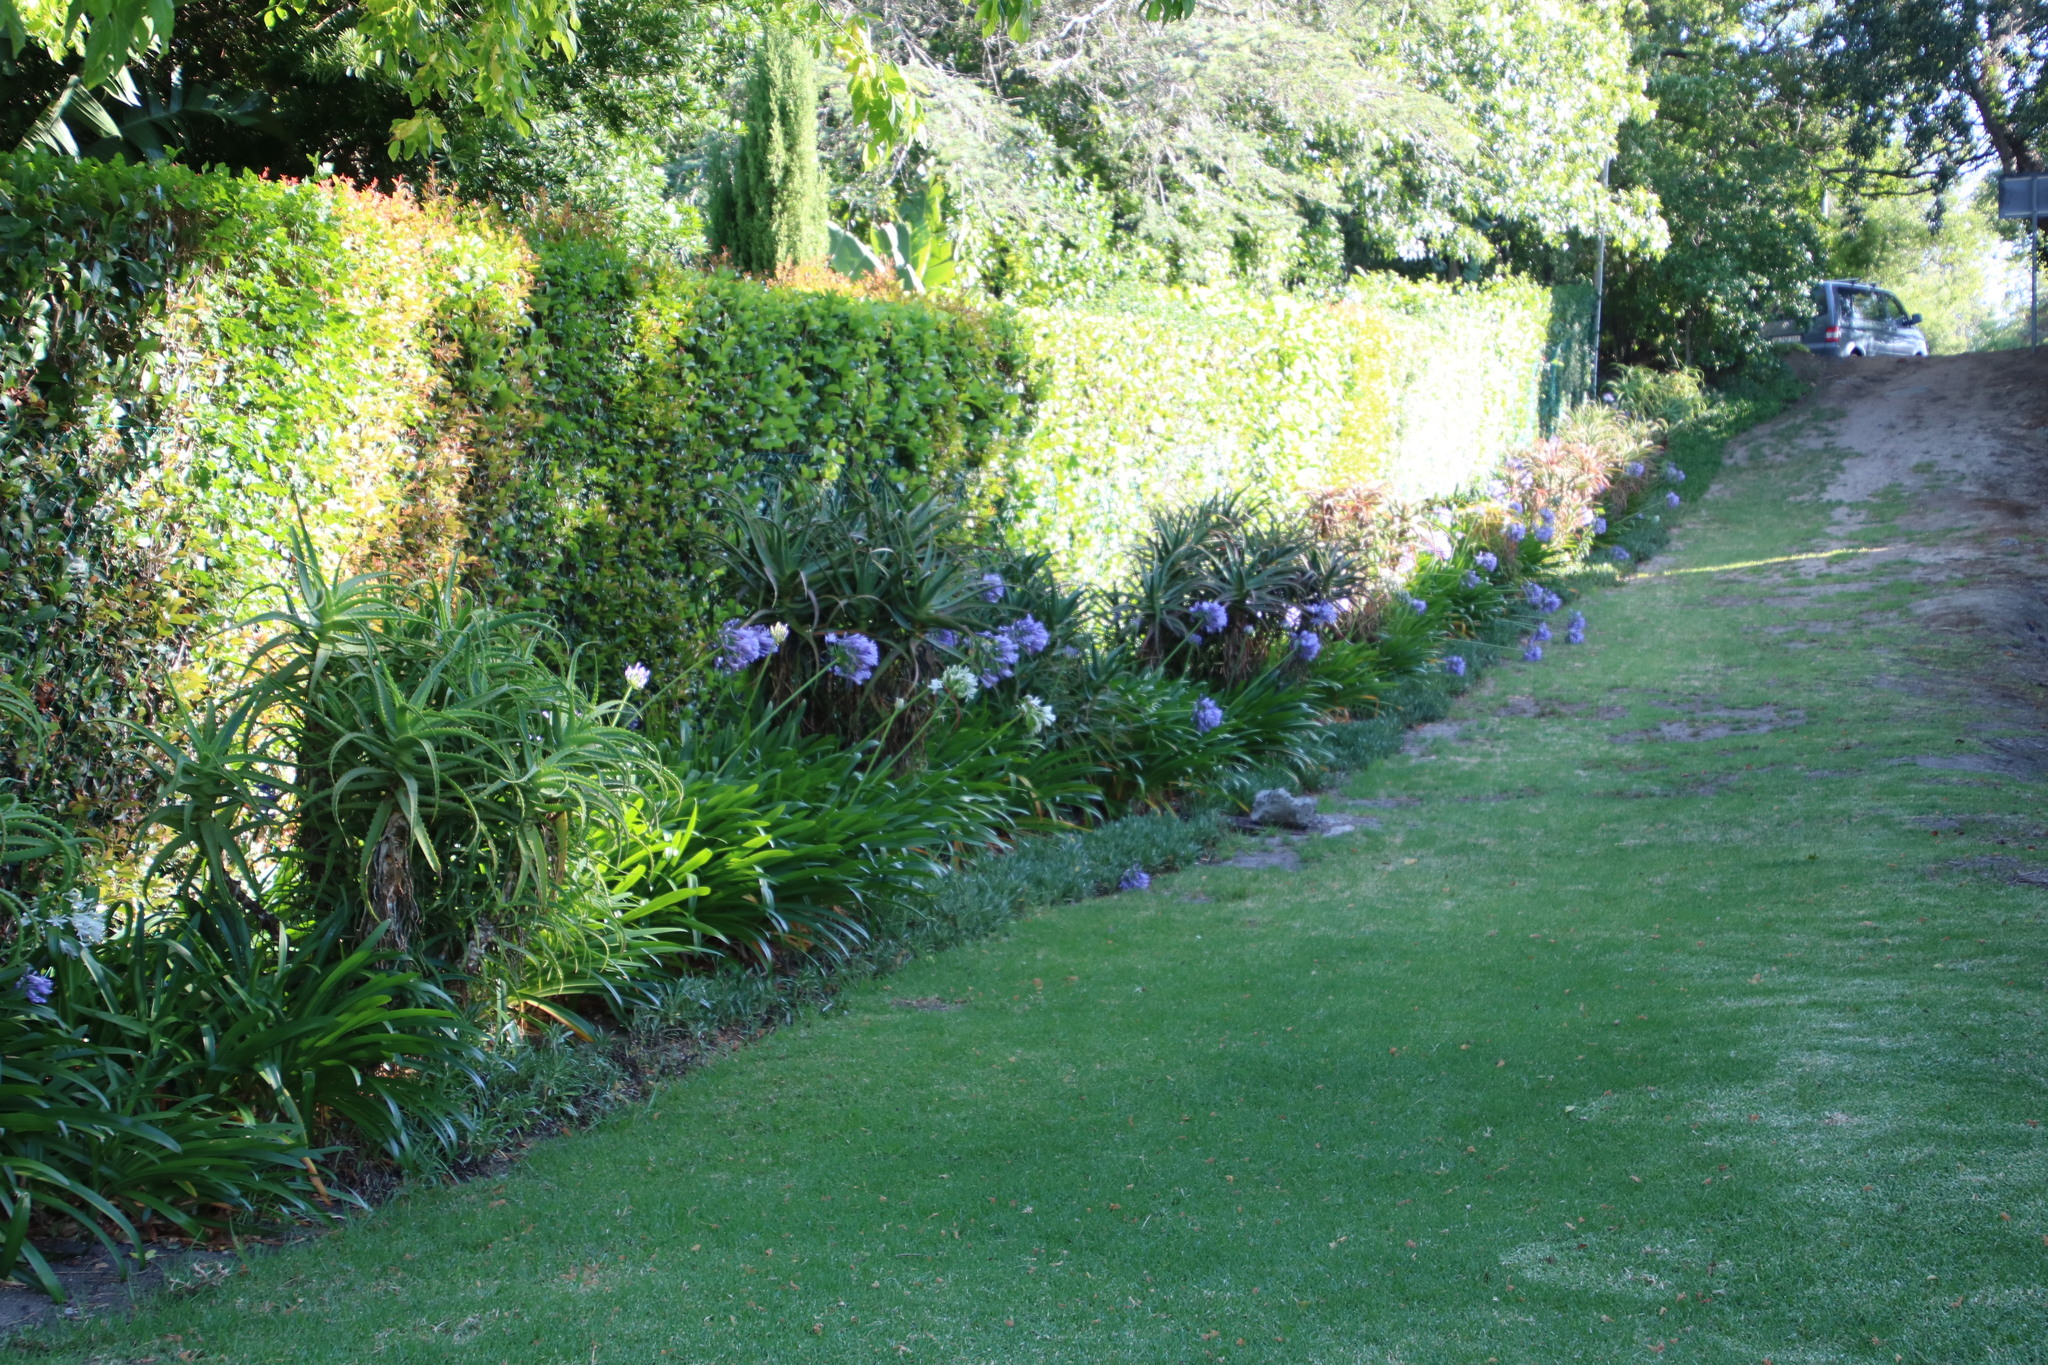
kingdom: Plantae
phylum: Tracheophyta
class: Liliopsida
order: Asparagales
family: Amaryllidaceae
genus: Agapanthus
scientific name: Agapanthus praecox
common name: African-lily
